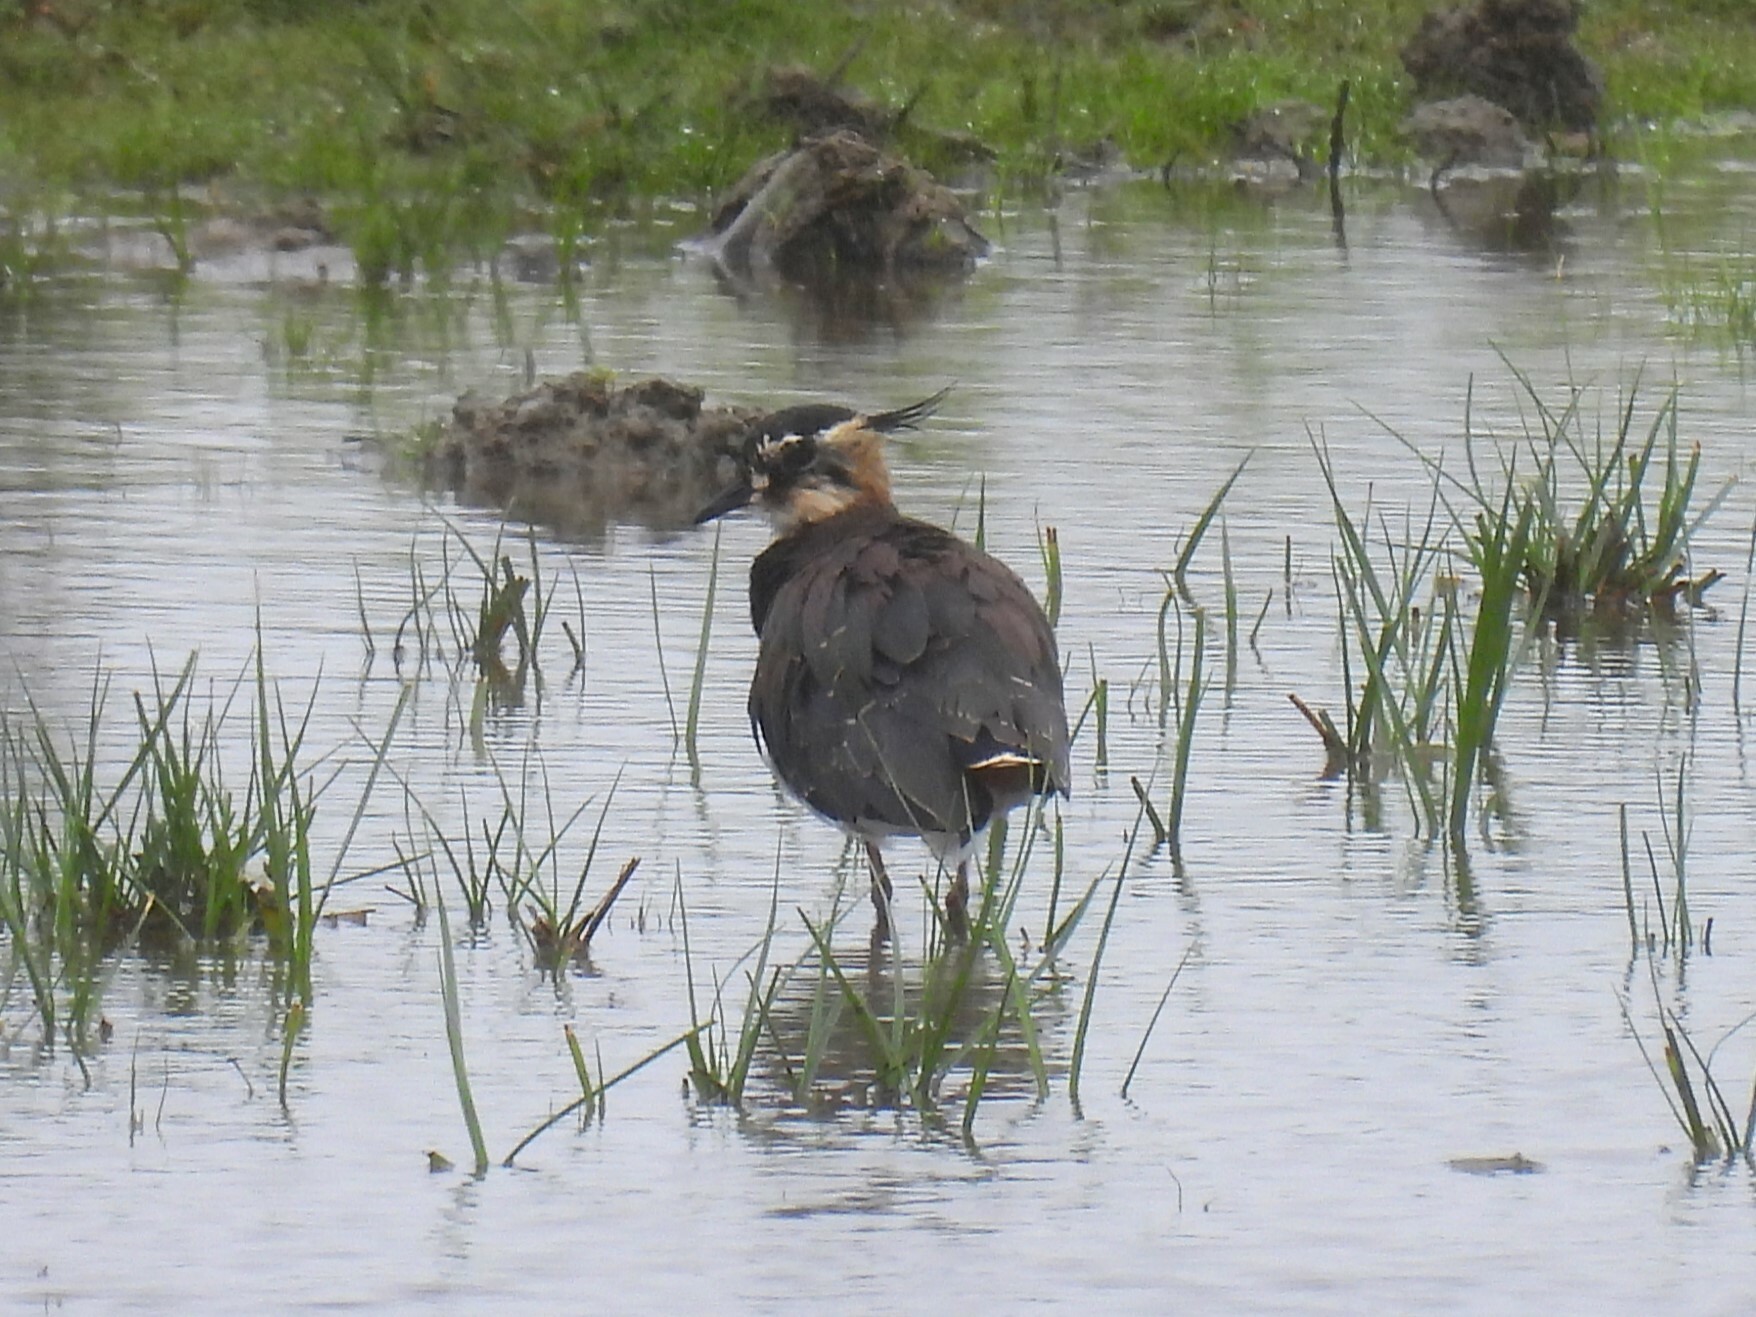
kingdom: Animalia
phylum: Chordata
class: Aves
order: Charadriiformes
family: Charadriidae
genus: Vanellus
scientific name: Vanellus vanellus
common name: Northern lapwing
